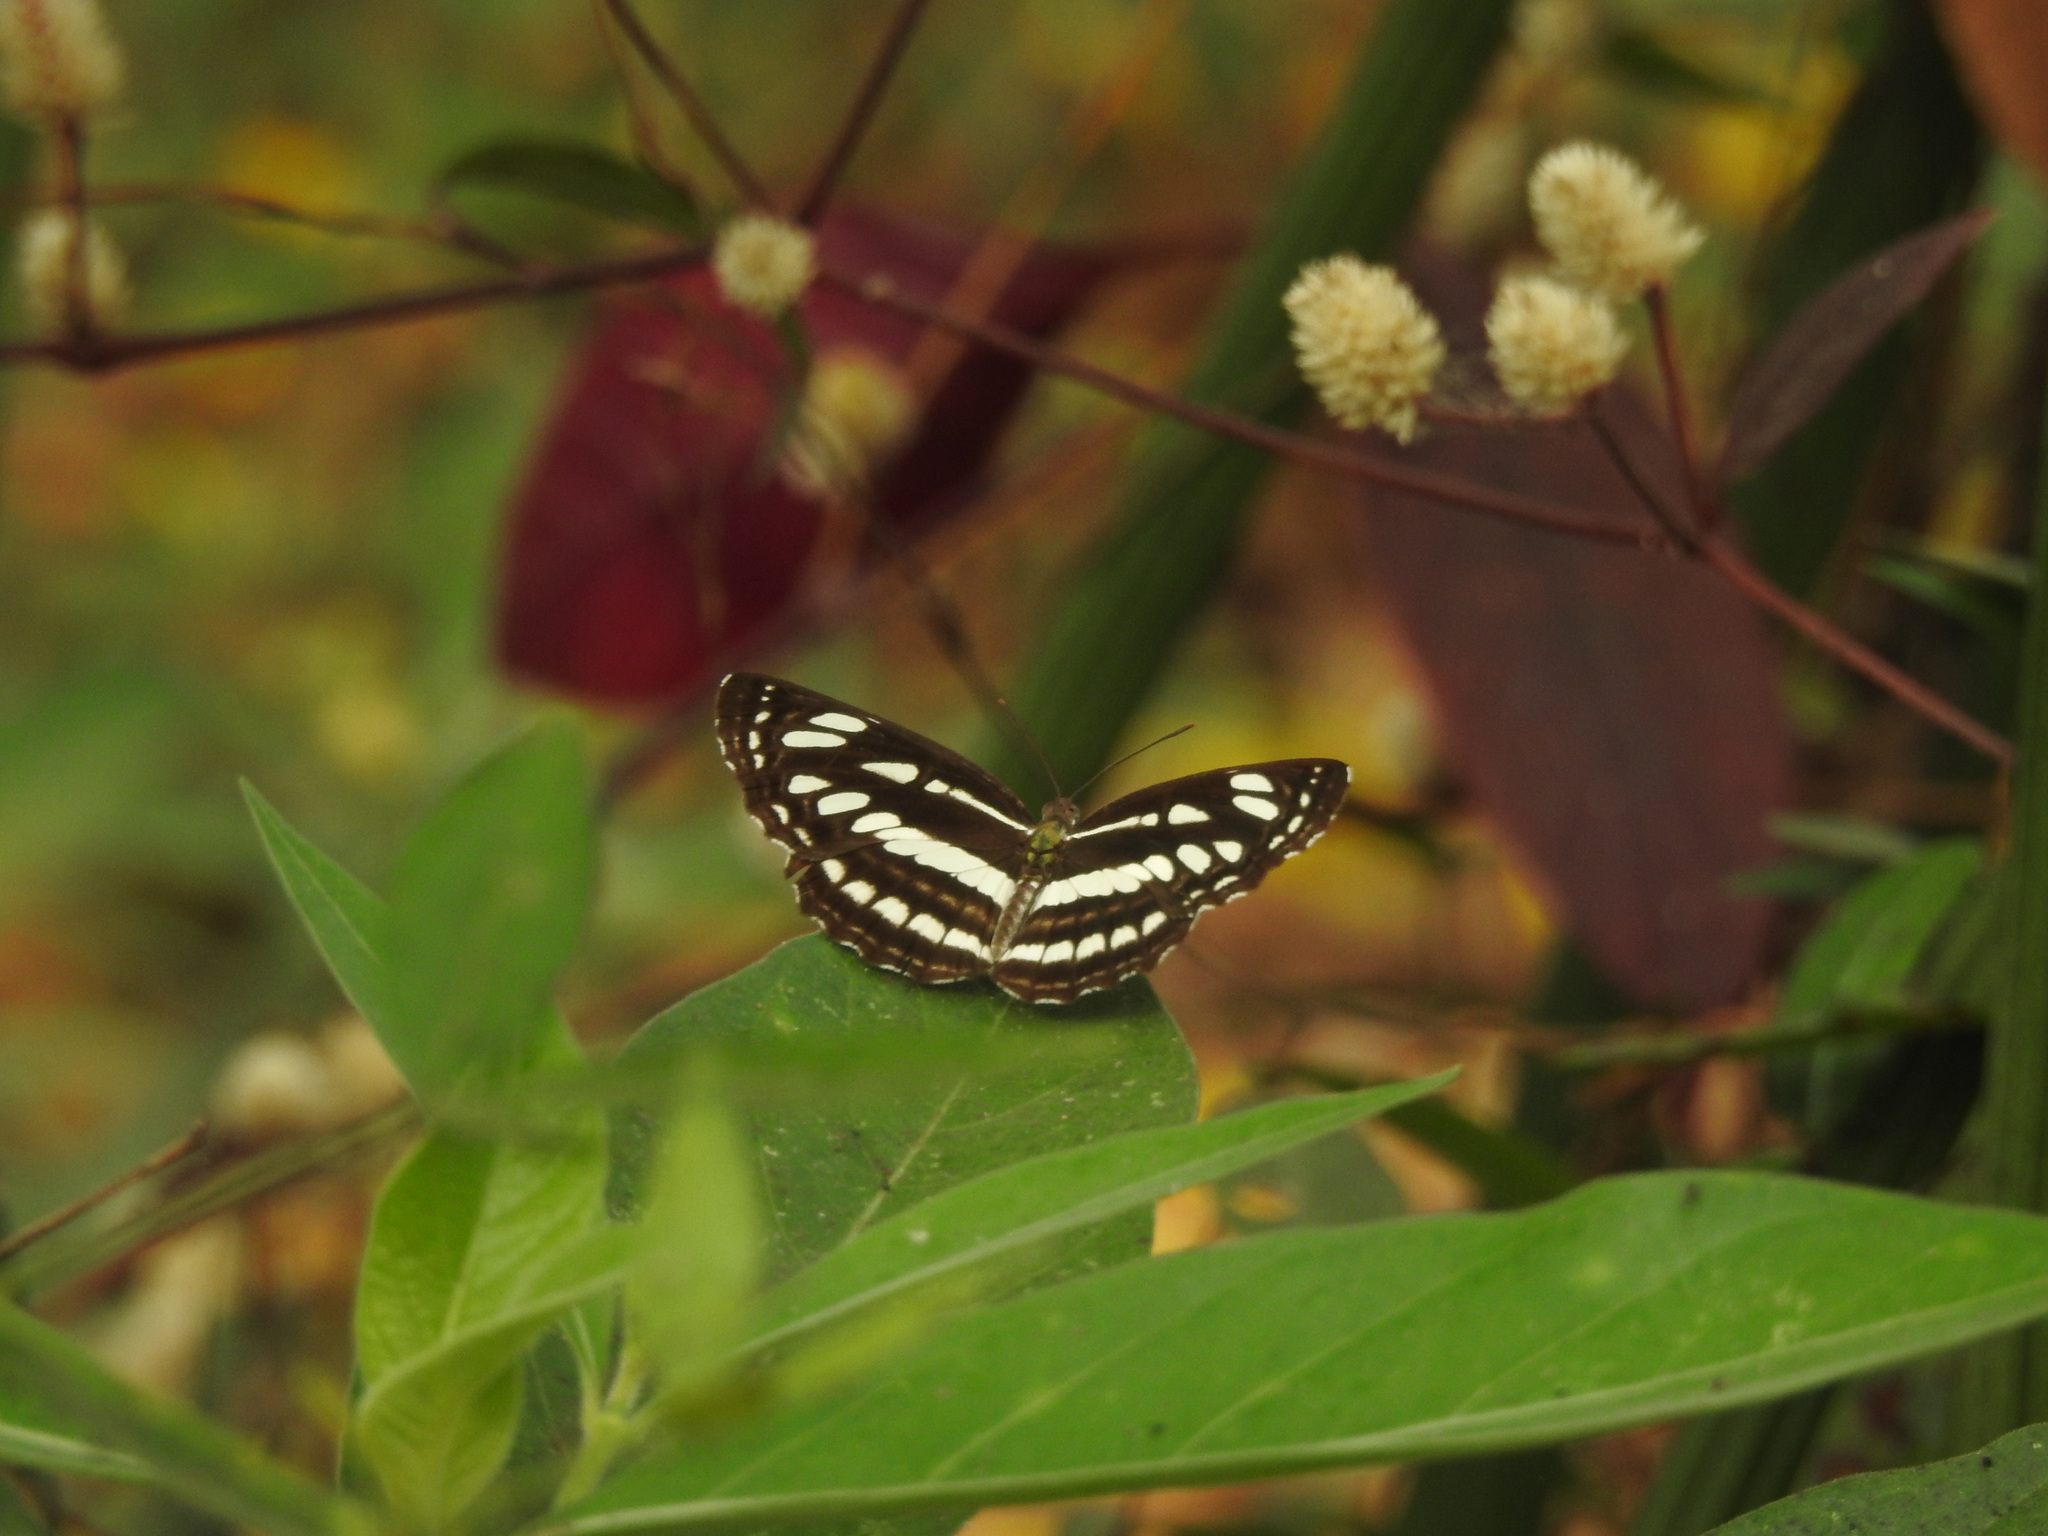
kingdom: Animalia
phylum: Arthropoda
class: Insecta
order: Lepidoptera
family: Nymphalidae
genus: Neptis
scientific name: Neptis hylas
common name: Common sailer
